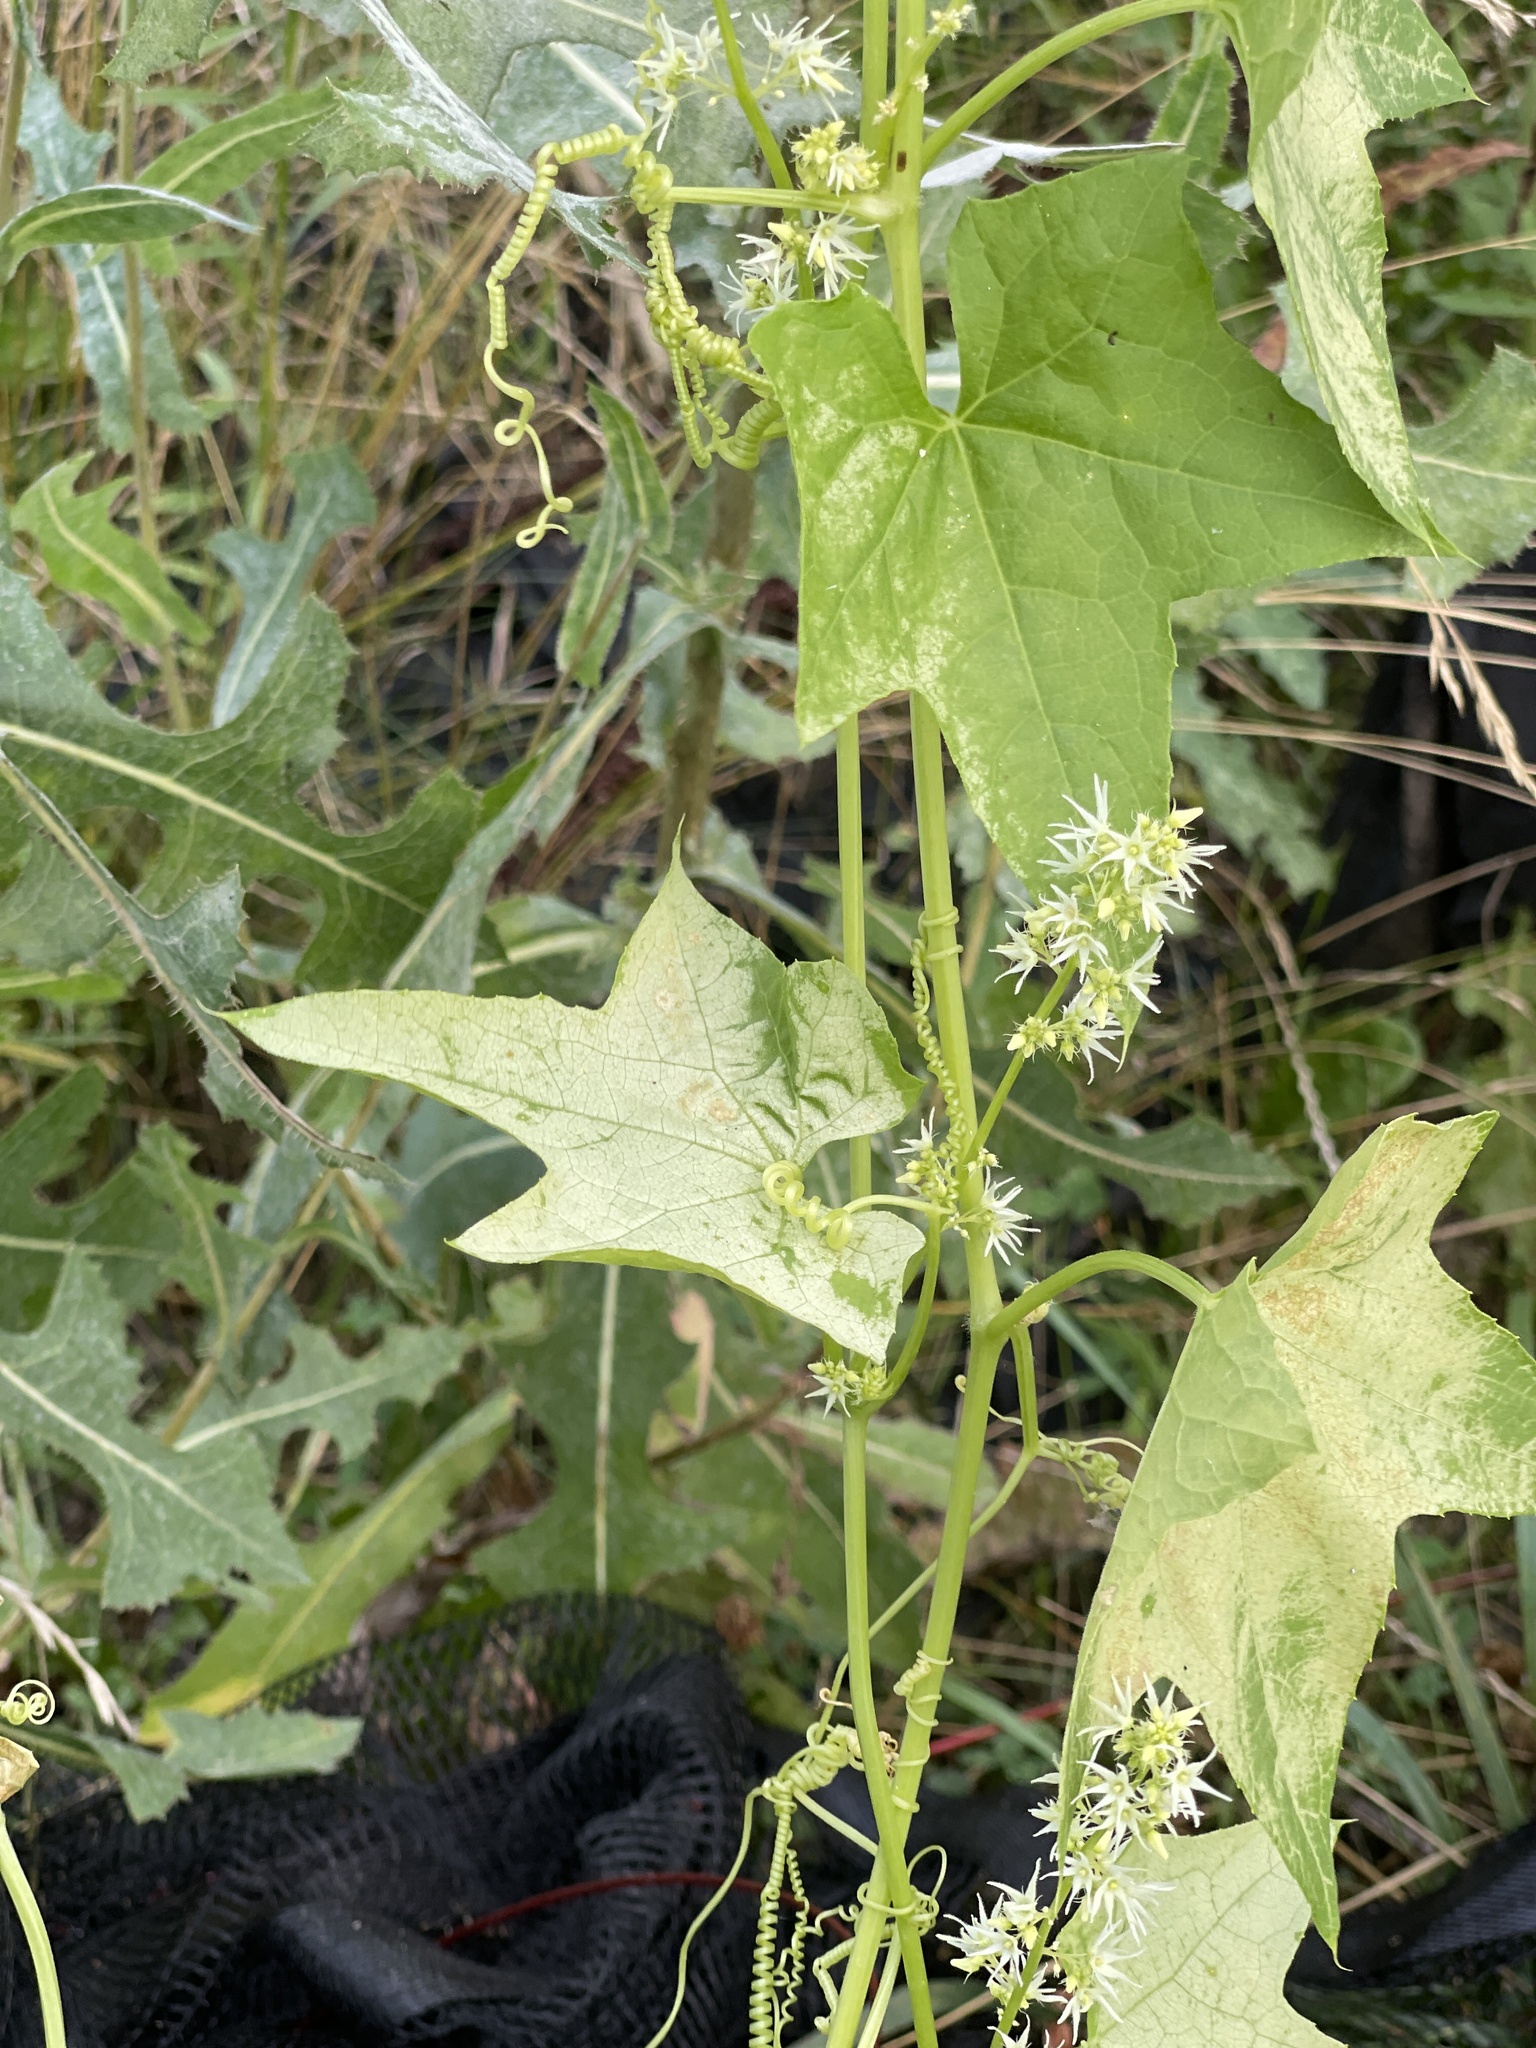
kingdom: Plantae
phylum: Tracheophyta
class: Magnoliopsida
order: Cucurbitales
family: Cucurbitaceae
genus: Echinocystis
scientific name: Echinocystis lobata
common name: Wild cucumber
